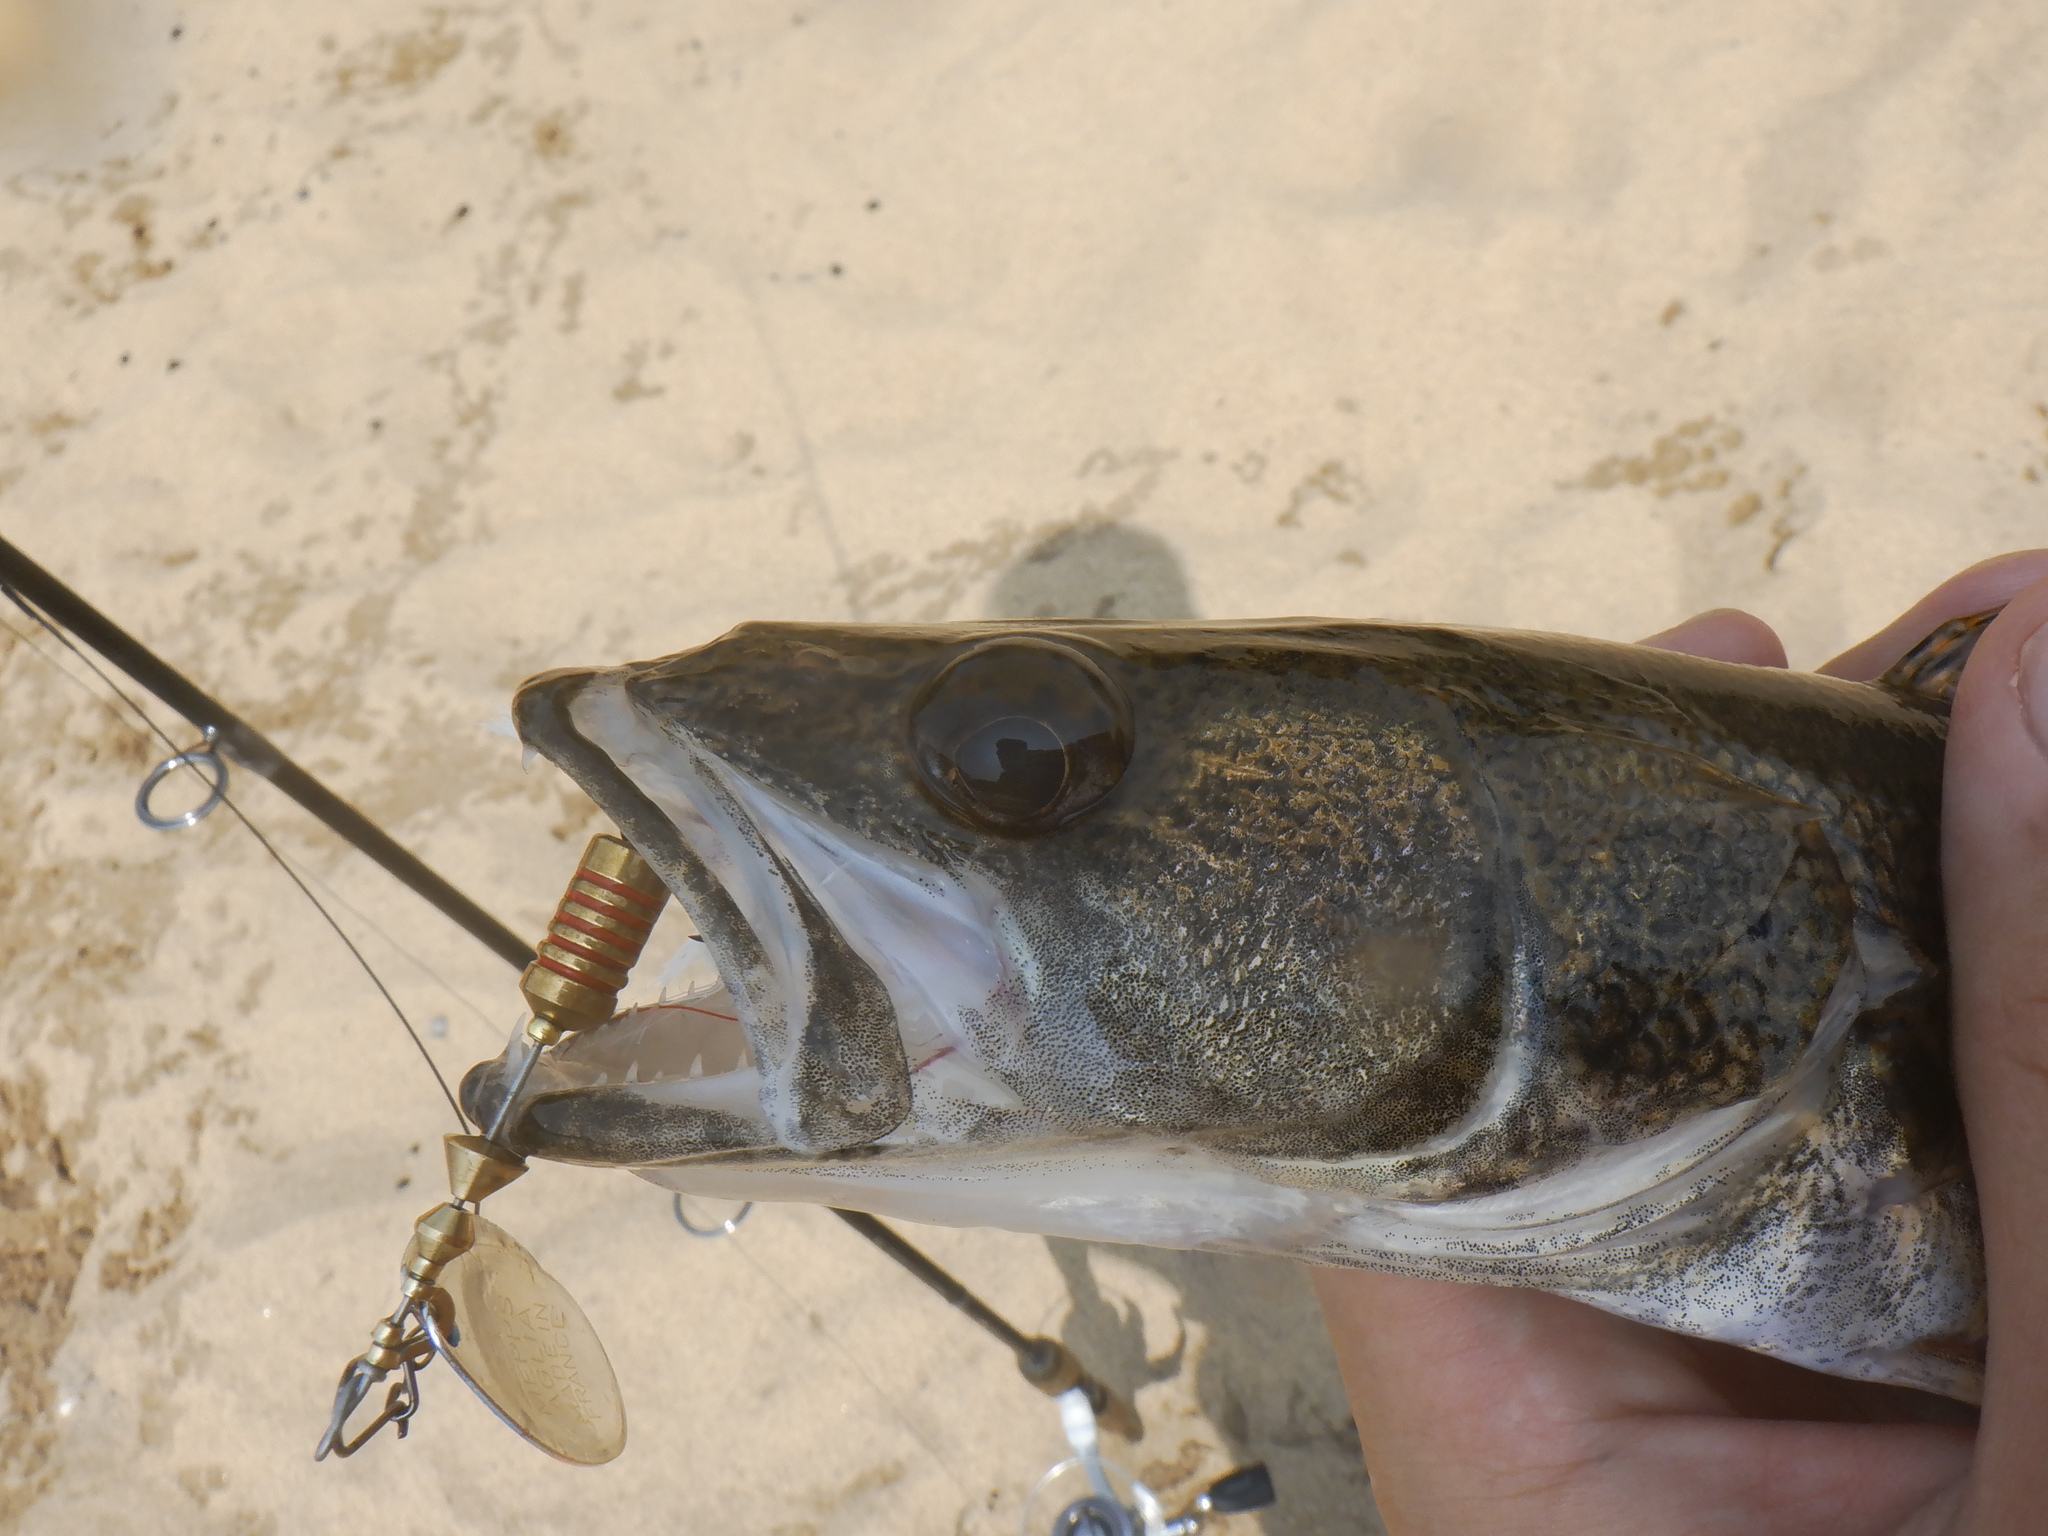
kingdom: Animalia
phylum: Chordata
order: Perciformes
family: Percidae
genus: Sander
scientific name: Sander canadensis
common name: Sauger
